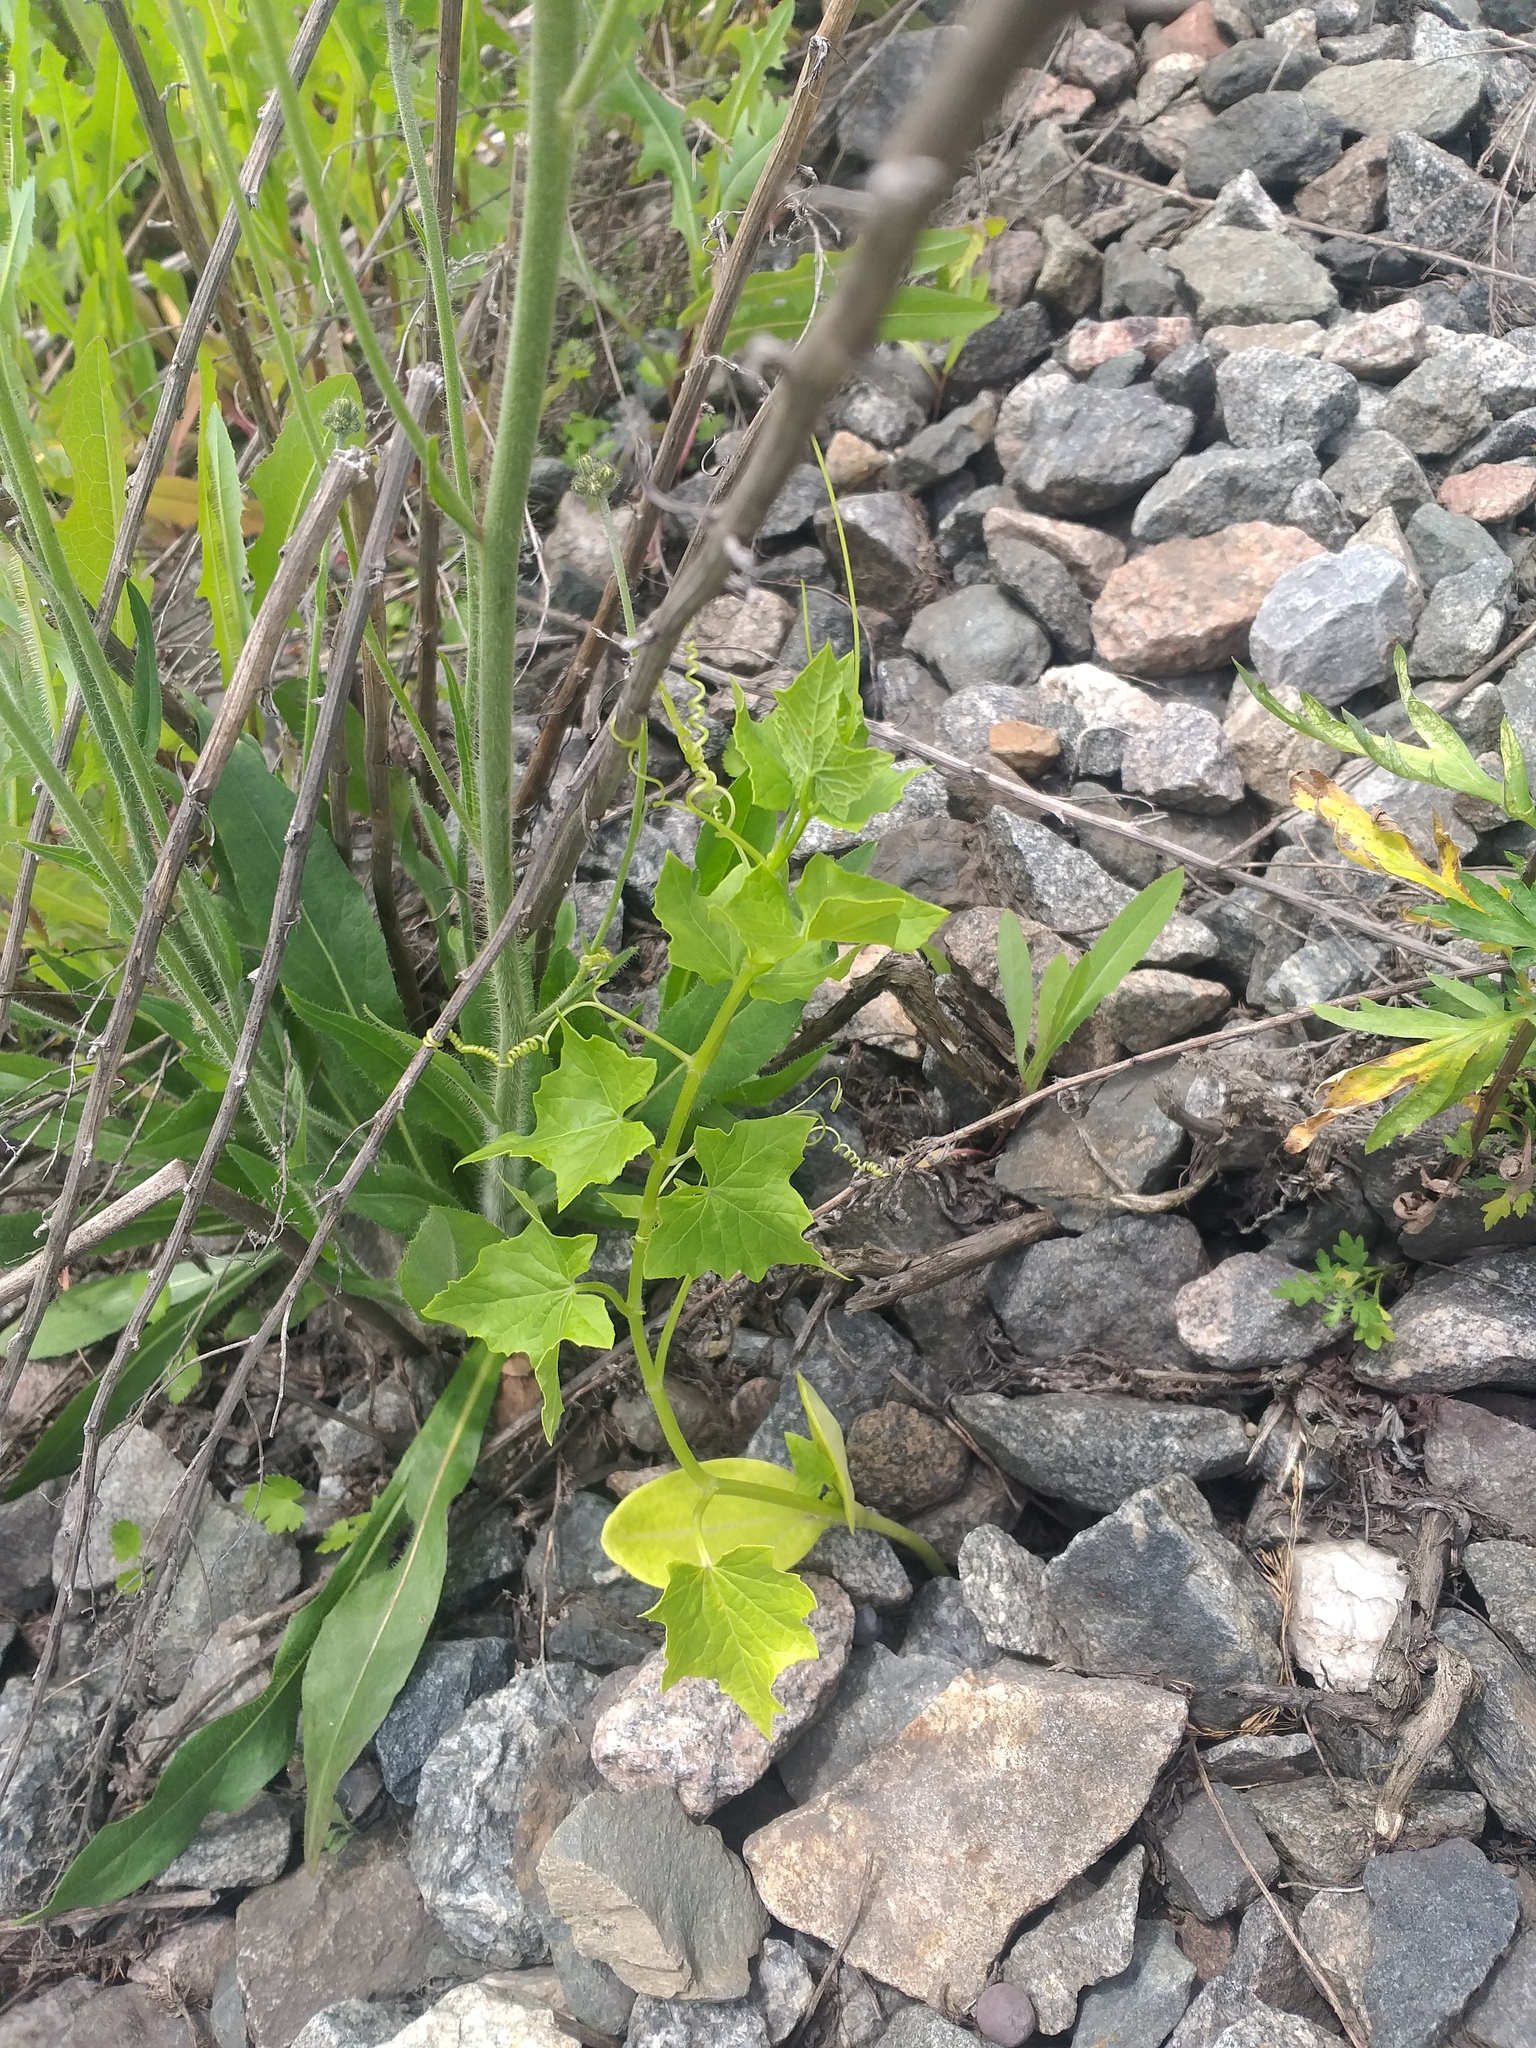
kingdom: Plantae
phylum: Tracheophyta
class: Magnoliopsida
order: Cucurbitales
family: Cucurbitaceae
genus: Echinocystis
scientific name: Echinocystis lobata
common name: Wild cucumber
